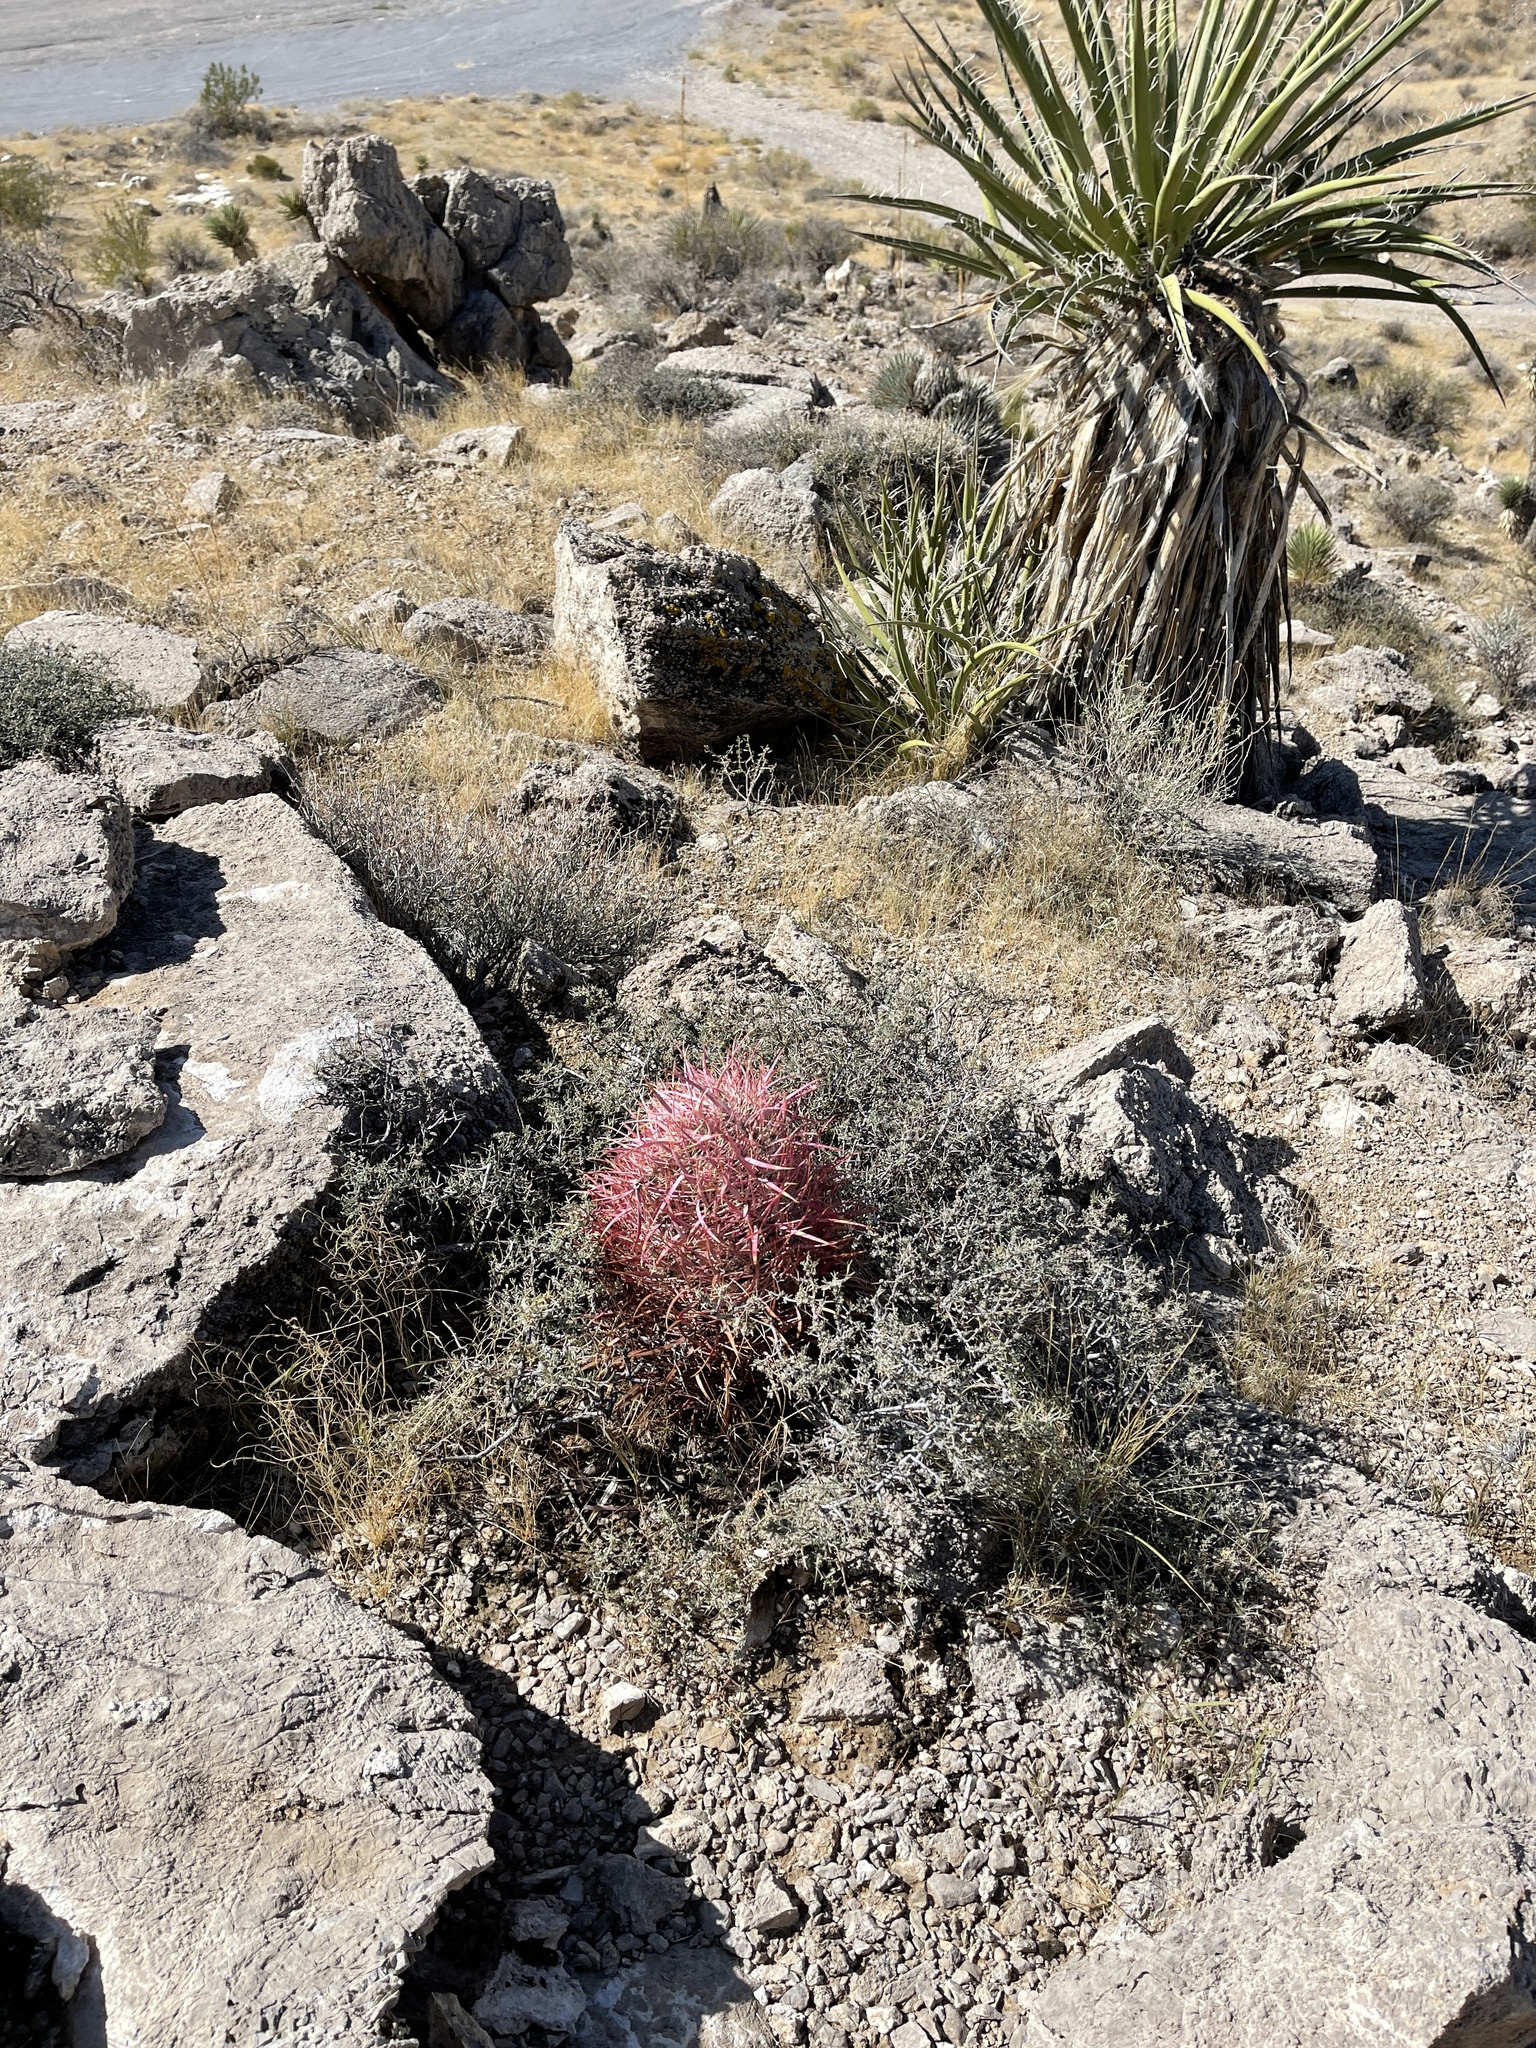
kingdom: Plantae
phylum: Tracheophyta
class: Magnoliopsida
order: Caryophyllales
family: Cactaceae
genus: Ferocactus
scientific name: Ferocactus cylindraceus
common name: California barrel cactus
